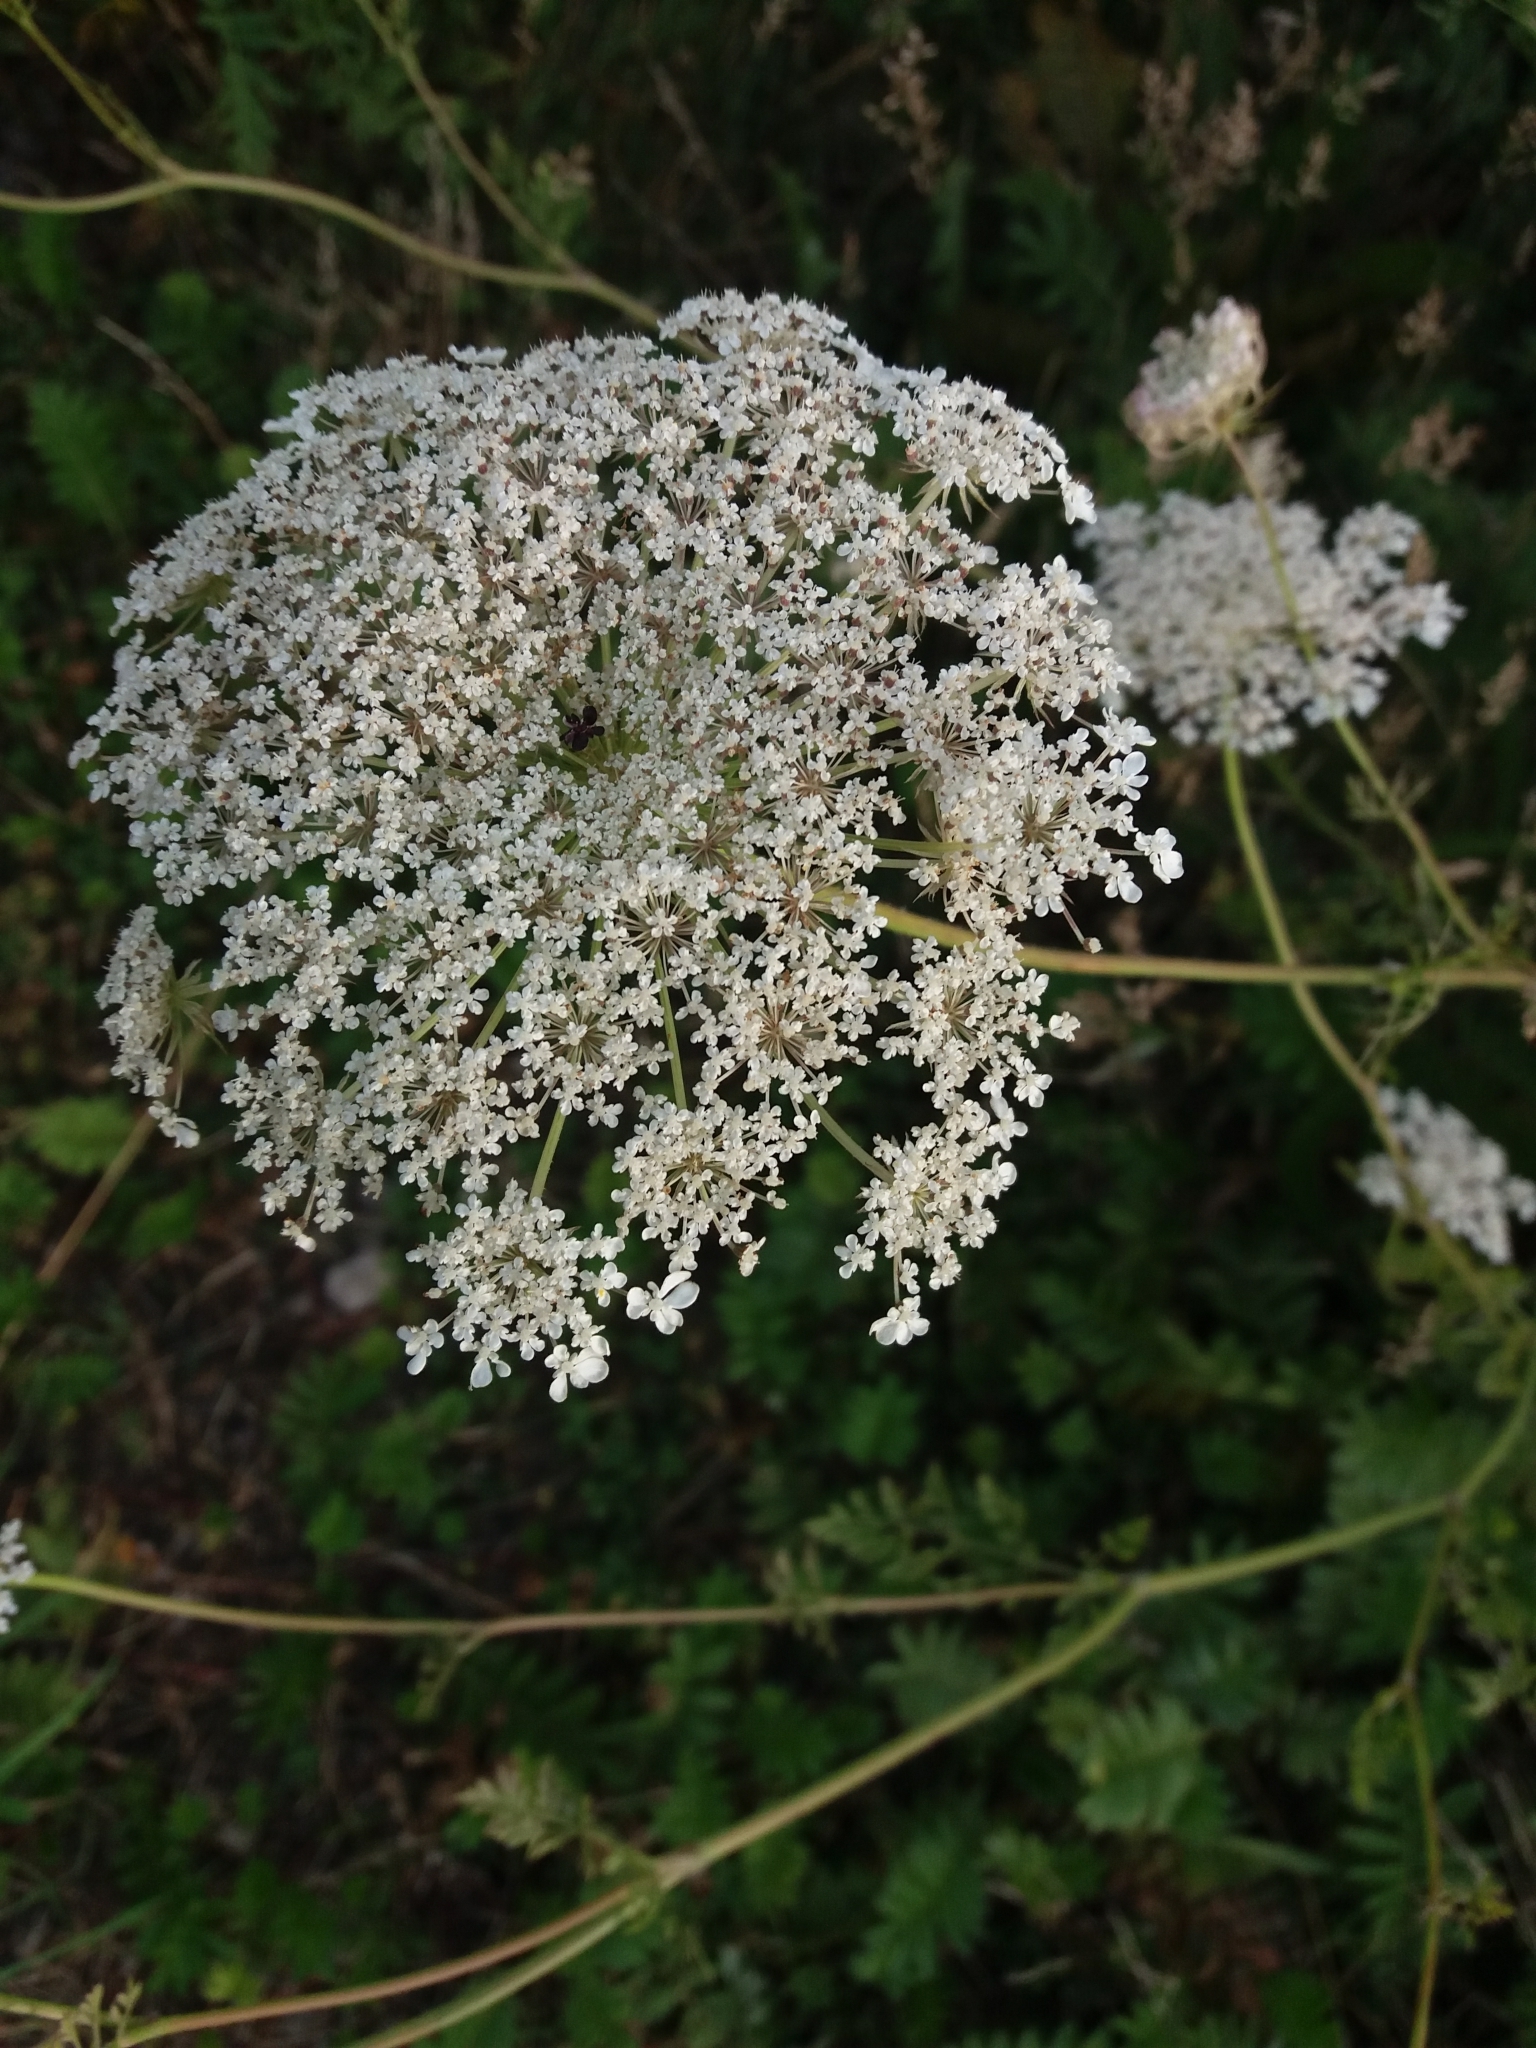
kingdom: Plantae
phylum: Tracheophyta
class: Magnoliopsida
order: Apiales
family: Apiaceae
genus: Daucus
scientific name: Daucus carota
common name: Wild carrot
